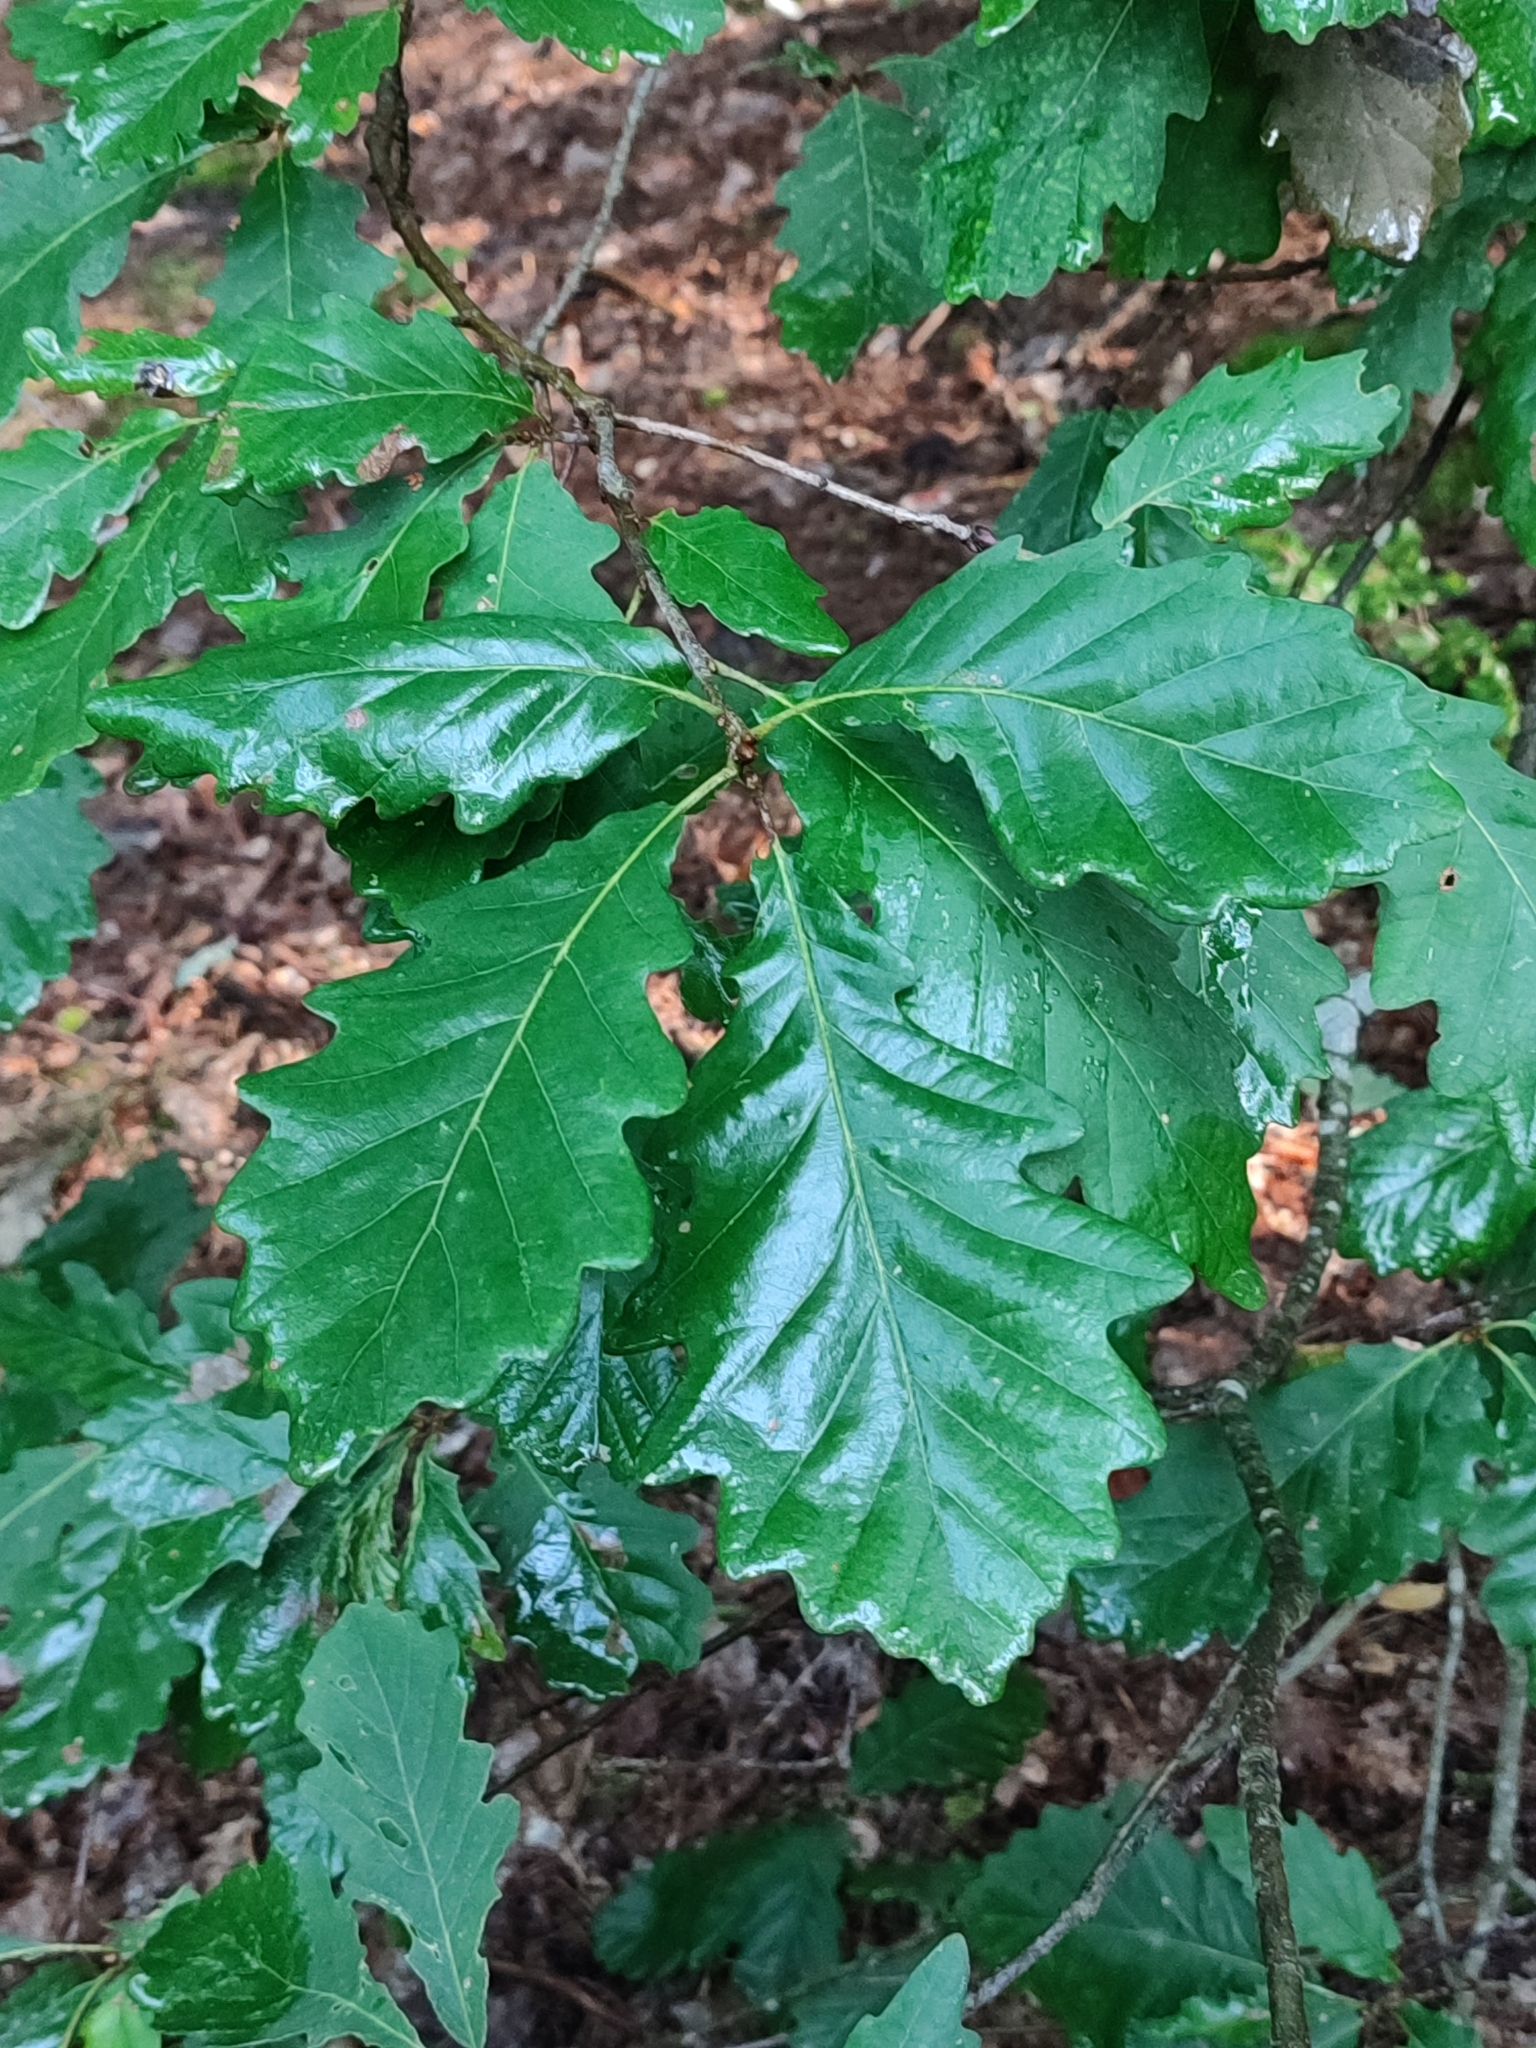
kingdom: Plantae
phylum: Tracheophyta
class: Magnoliopsida
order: Fagales
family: Fagaceae
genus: Quercus
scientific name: Quercus petraea
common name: Sessile oak
